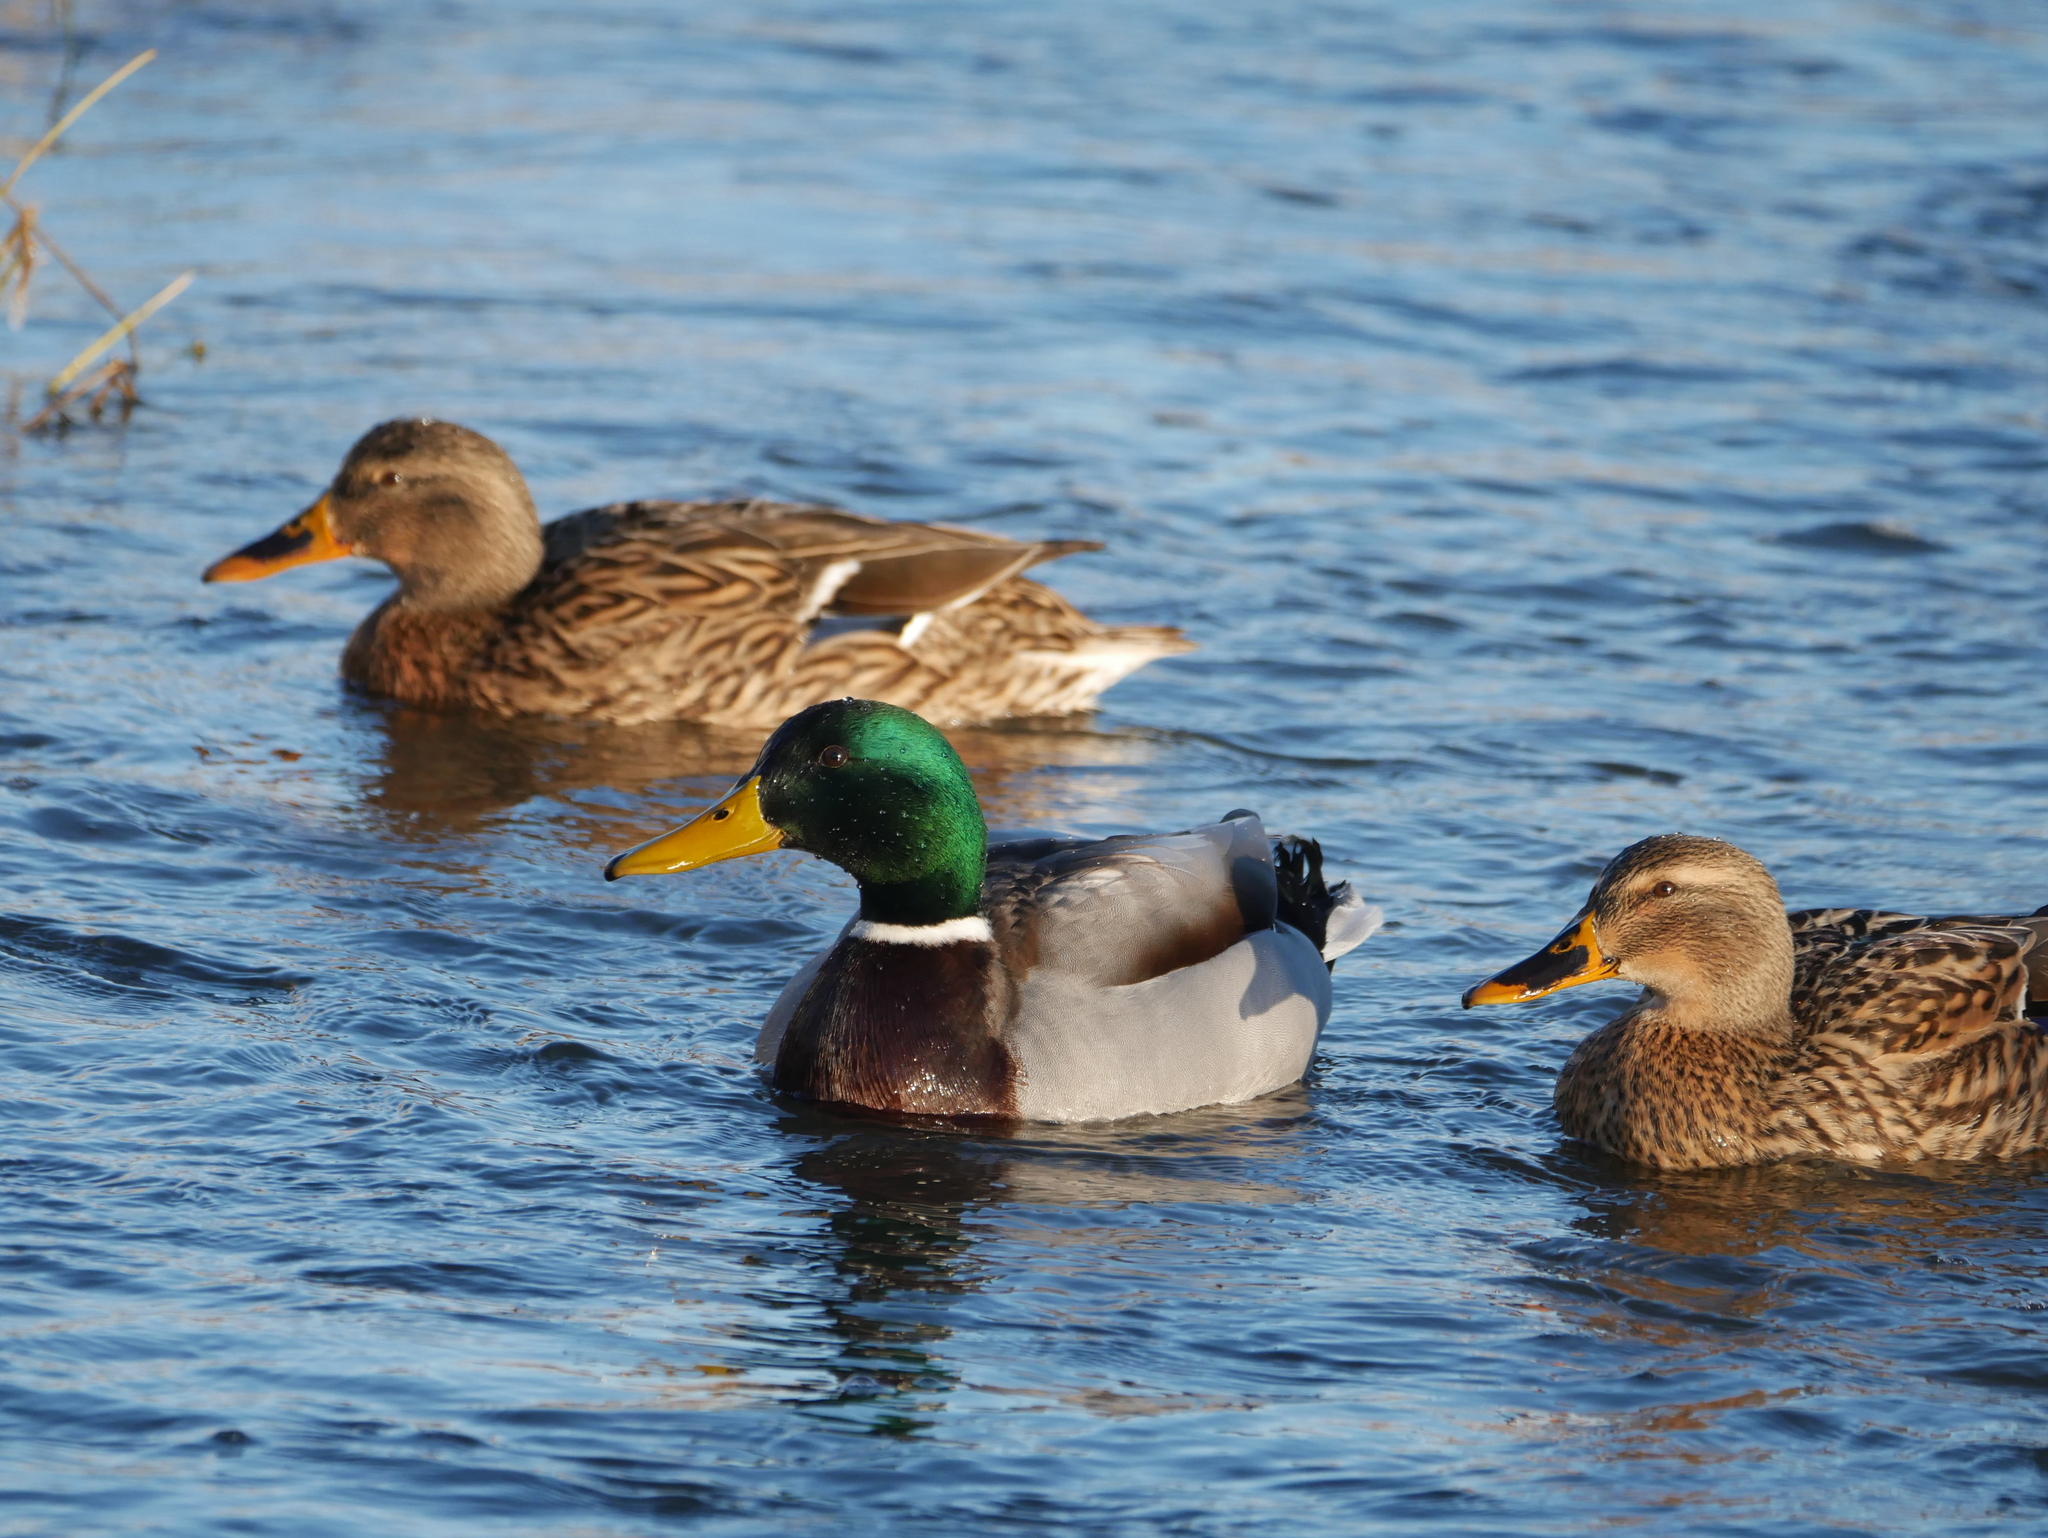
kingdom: Animalia
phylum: Chordata
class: Aves
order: Anseriformes
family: Anatidae
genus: Anas
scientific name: Anas platyrhynchos
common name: Mallard
